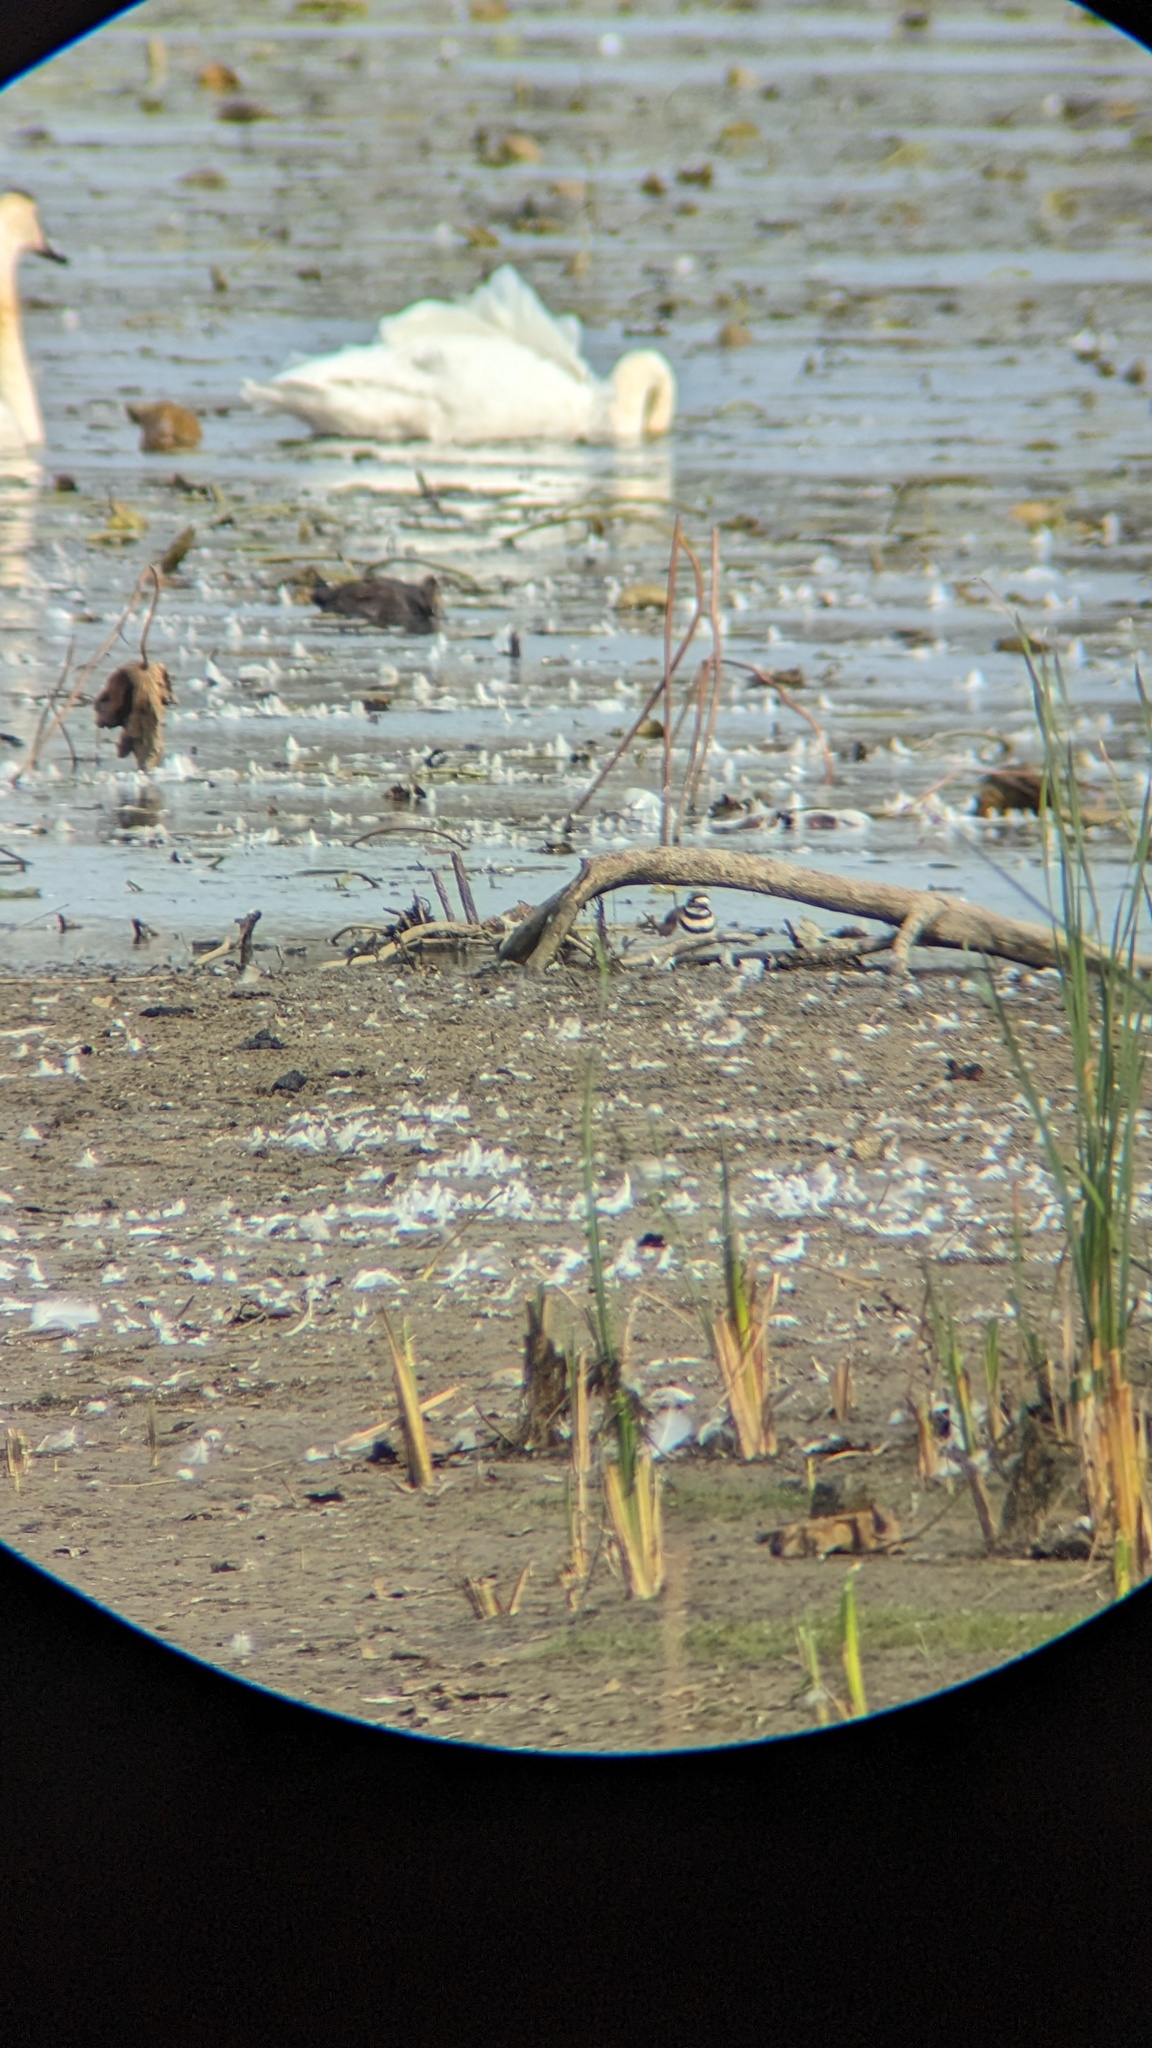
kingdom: Animalia
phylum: Chordata
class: Aves
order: Charadriiformes
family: Charadriidae
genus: Charadrius
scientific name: Charadrius vociferus
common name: Killdeer
